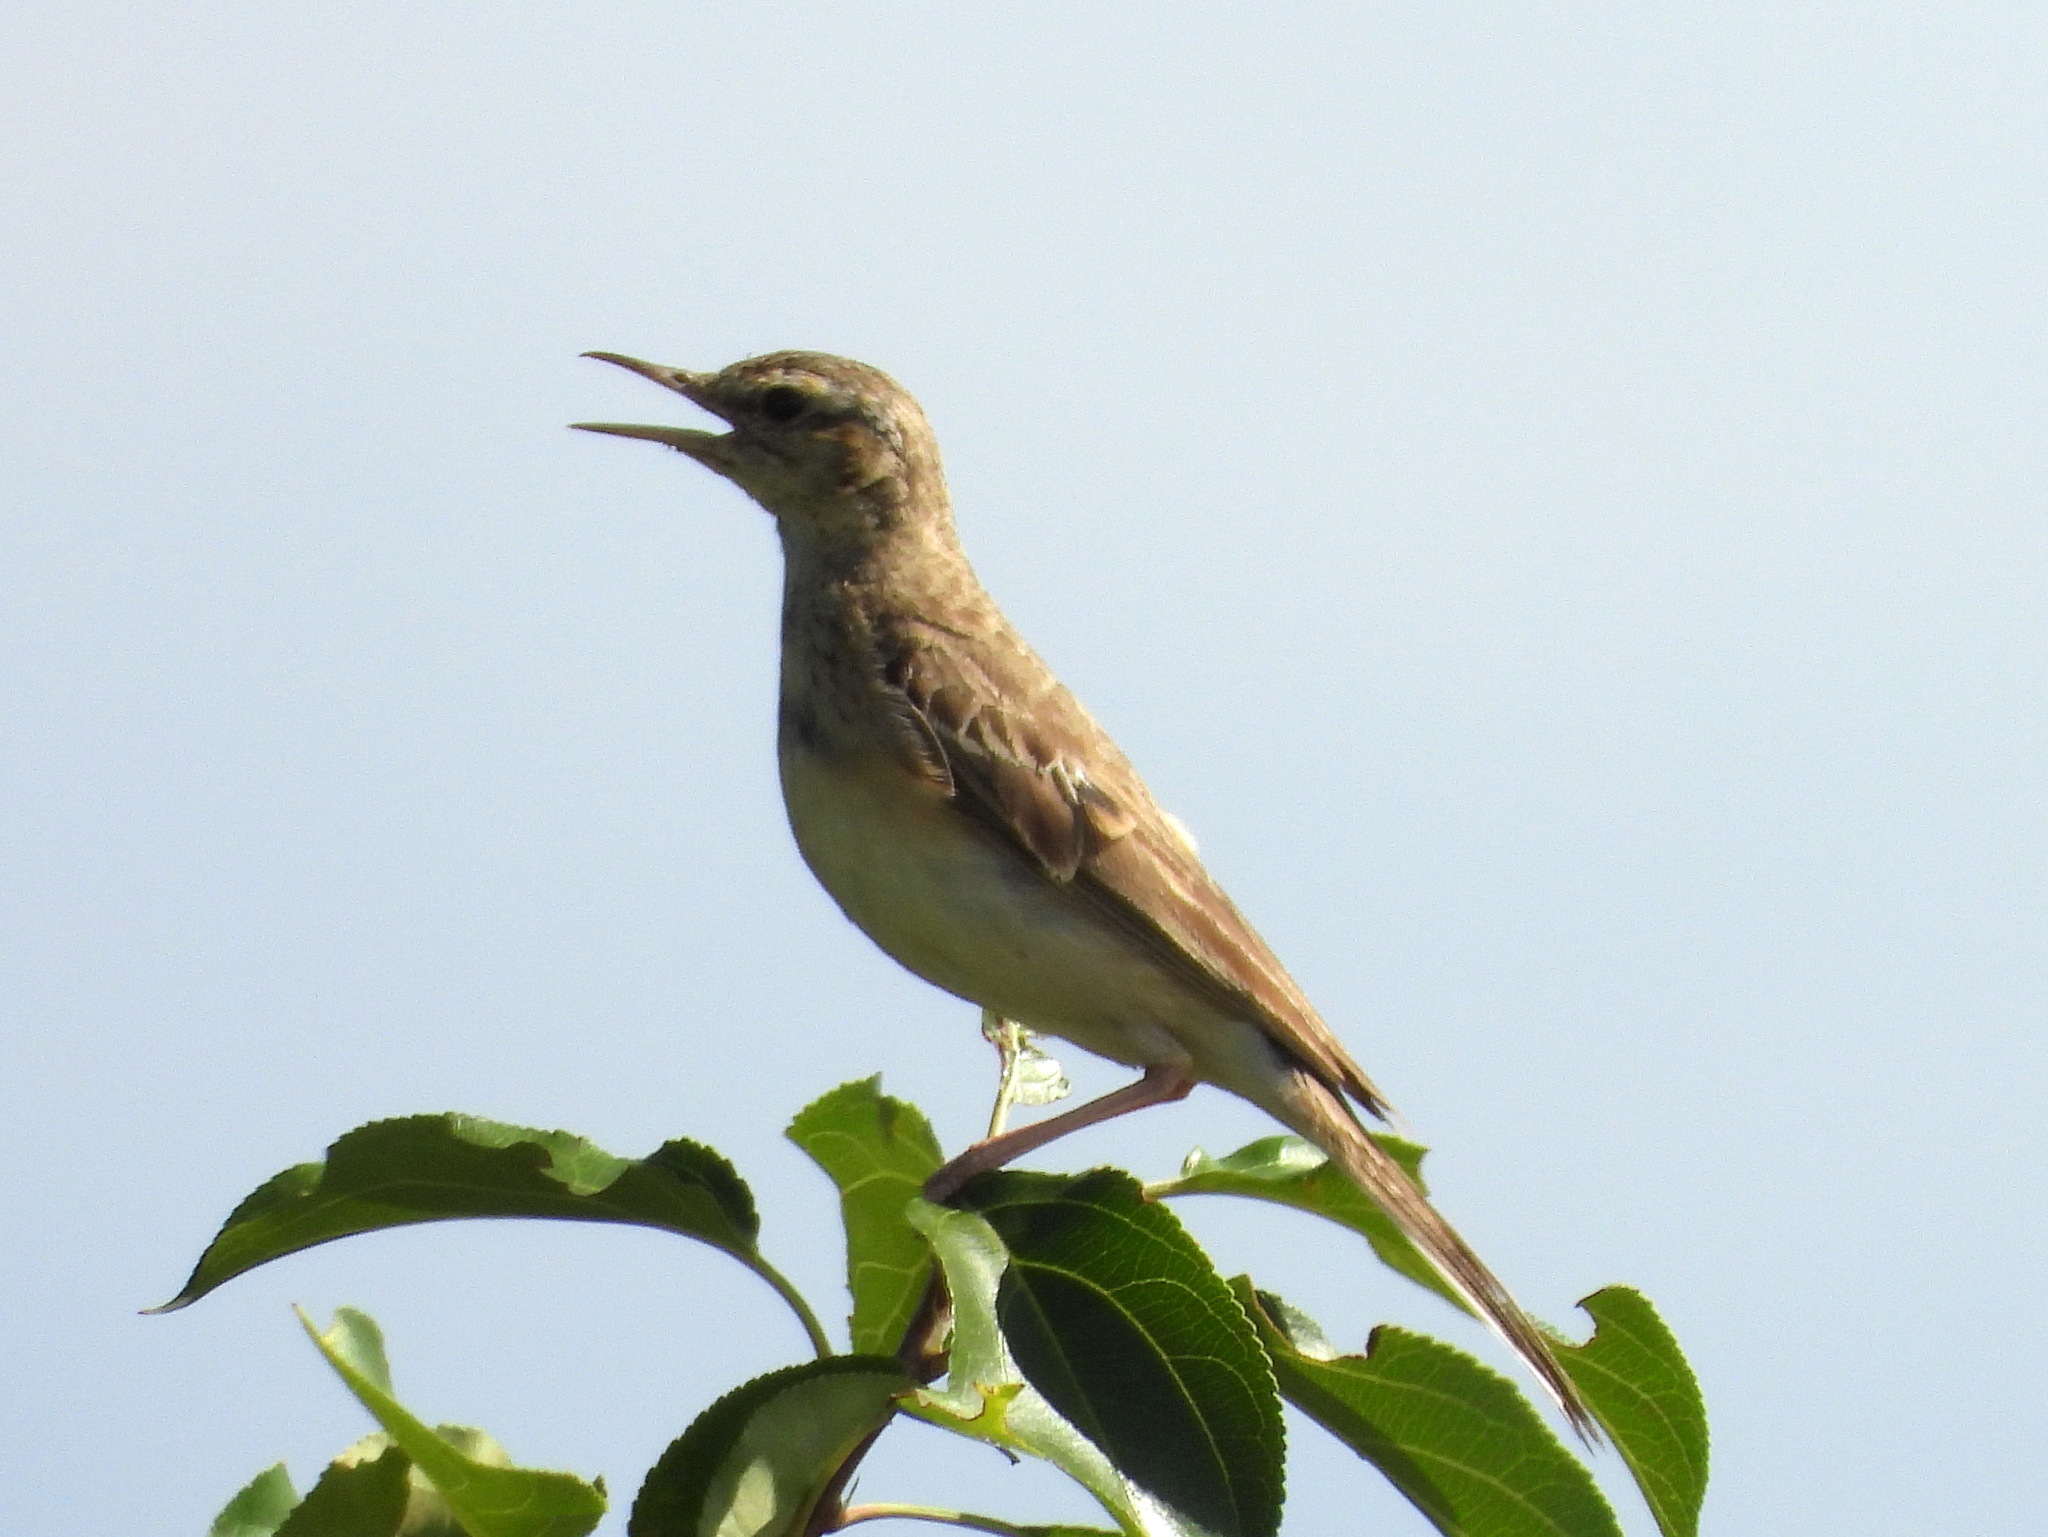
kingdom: Animalia
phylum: Chordata
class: Aves
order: Passeriformes
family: Motacillidae
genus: Anthus
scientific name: Anthus campestris
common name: Tawny pipit
